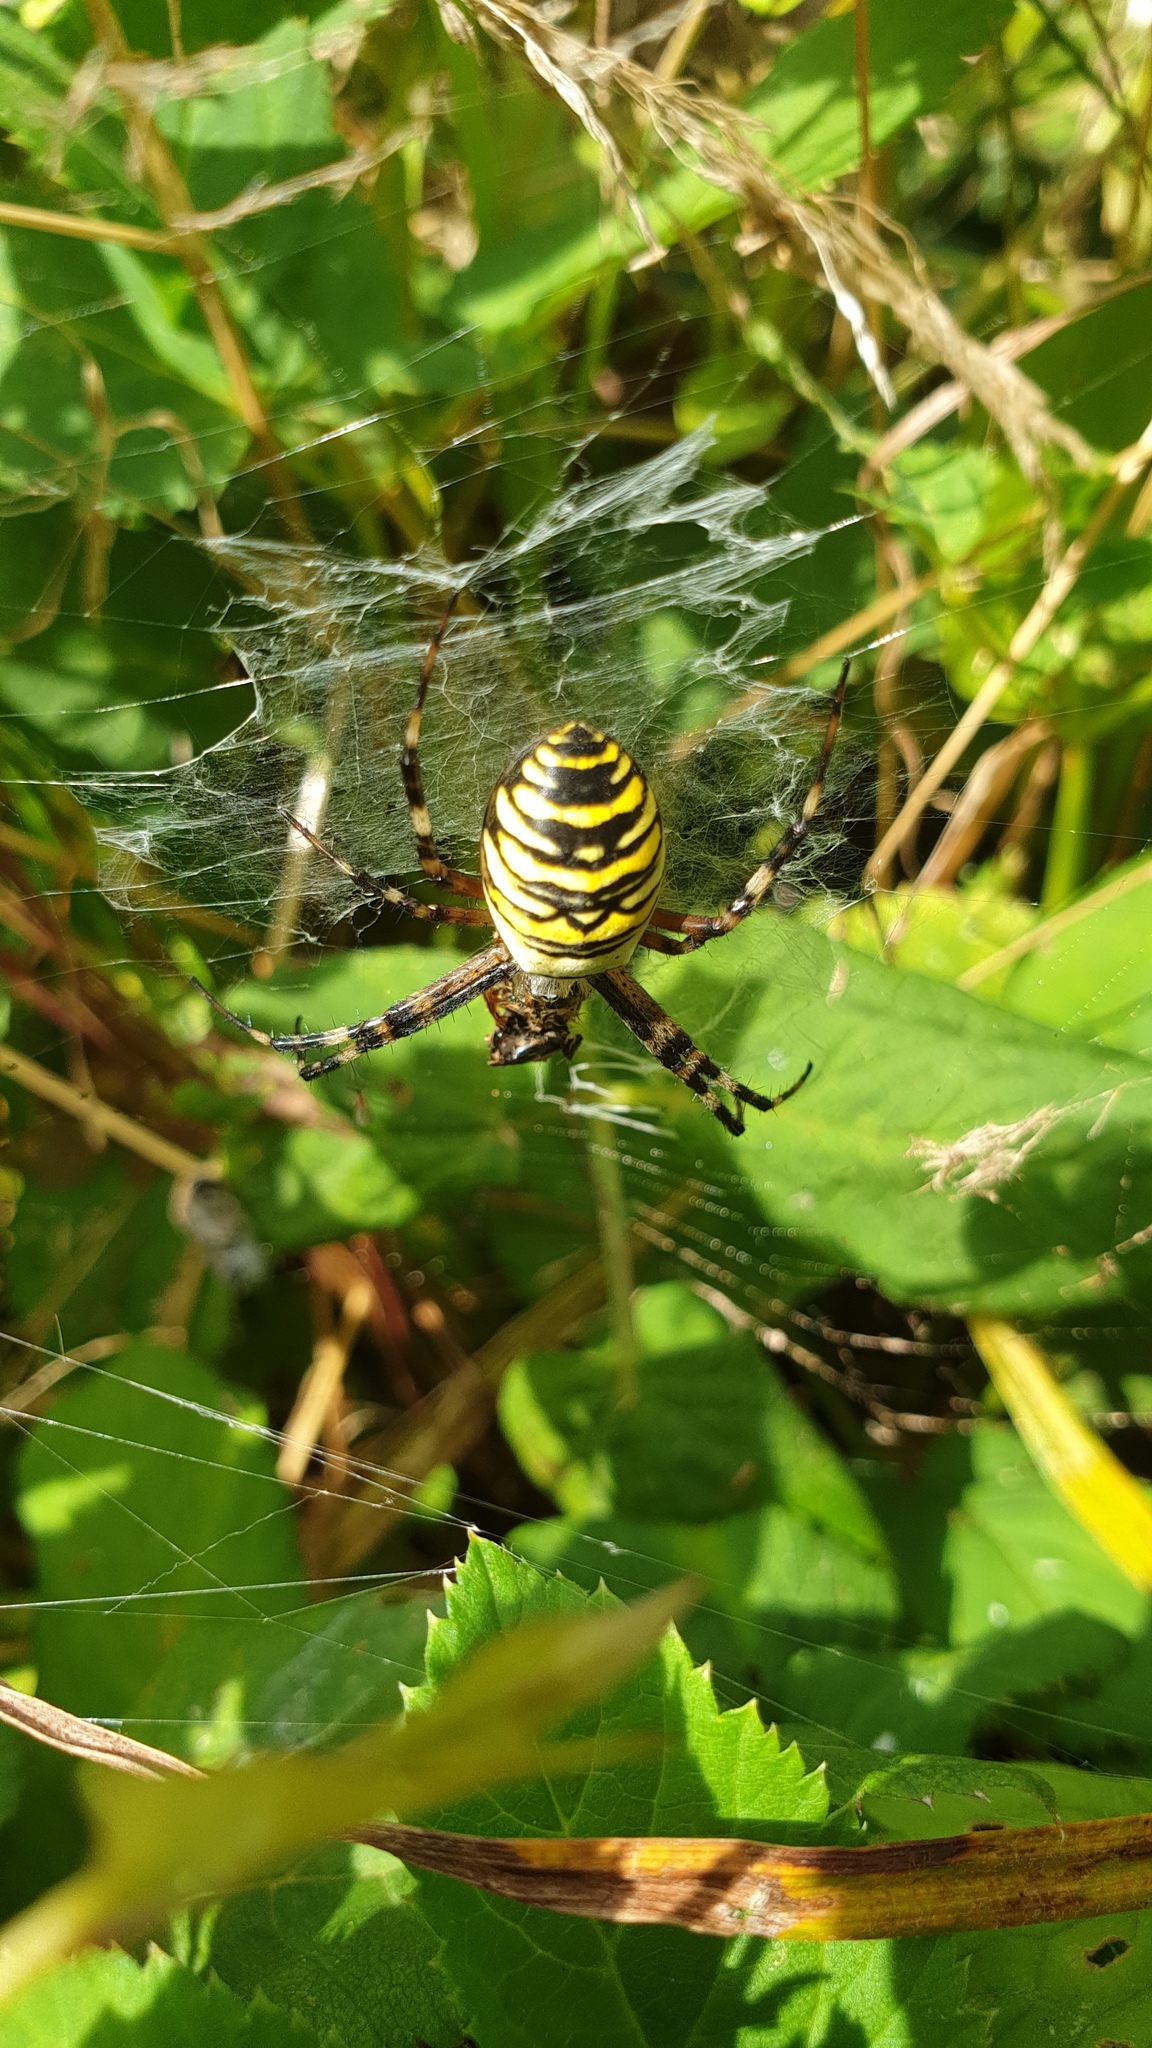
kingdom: Animalia
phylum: Arthropoda
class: Arachnida
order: Araneae
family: Araneidae
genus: Argiope
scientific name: Argiope bruennichi
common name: Wasp spider
